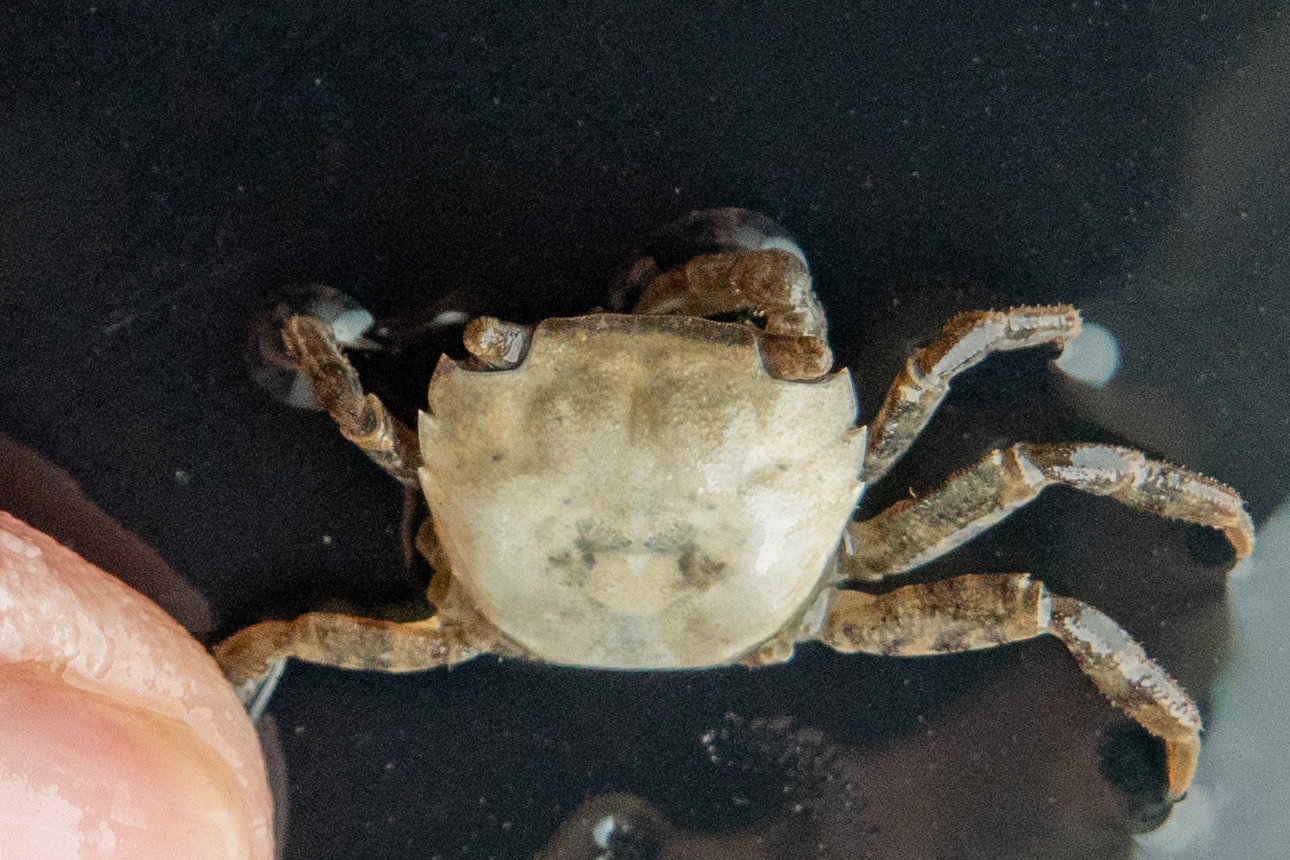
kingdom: Animalia
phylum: Arthropoda
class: Malacostraca
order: Decapoda
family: Varunidae
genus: Hemigrapsus
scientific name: Hemigrapsus takanoi
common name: Asian brush crab
